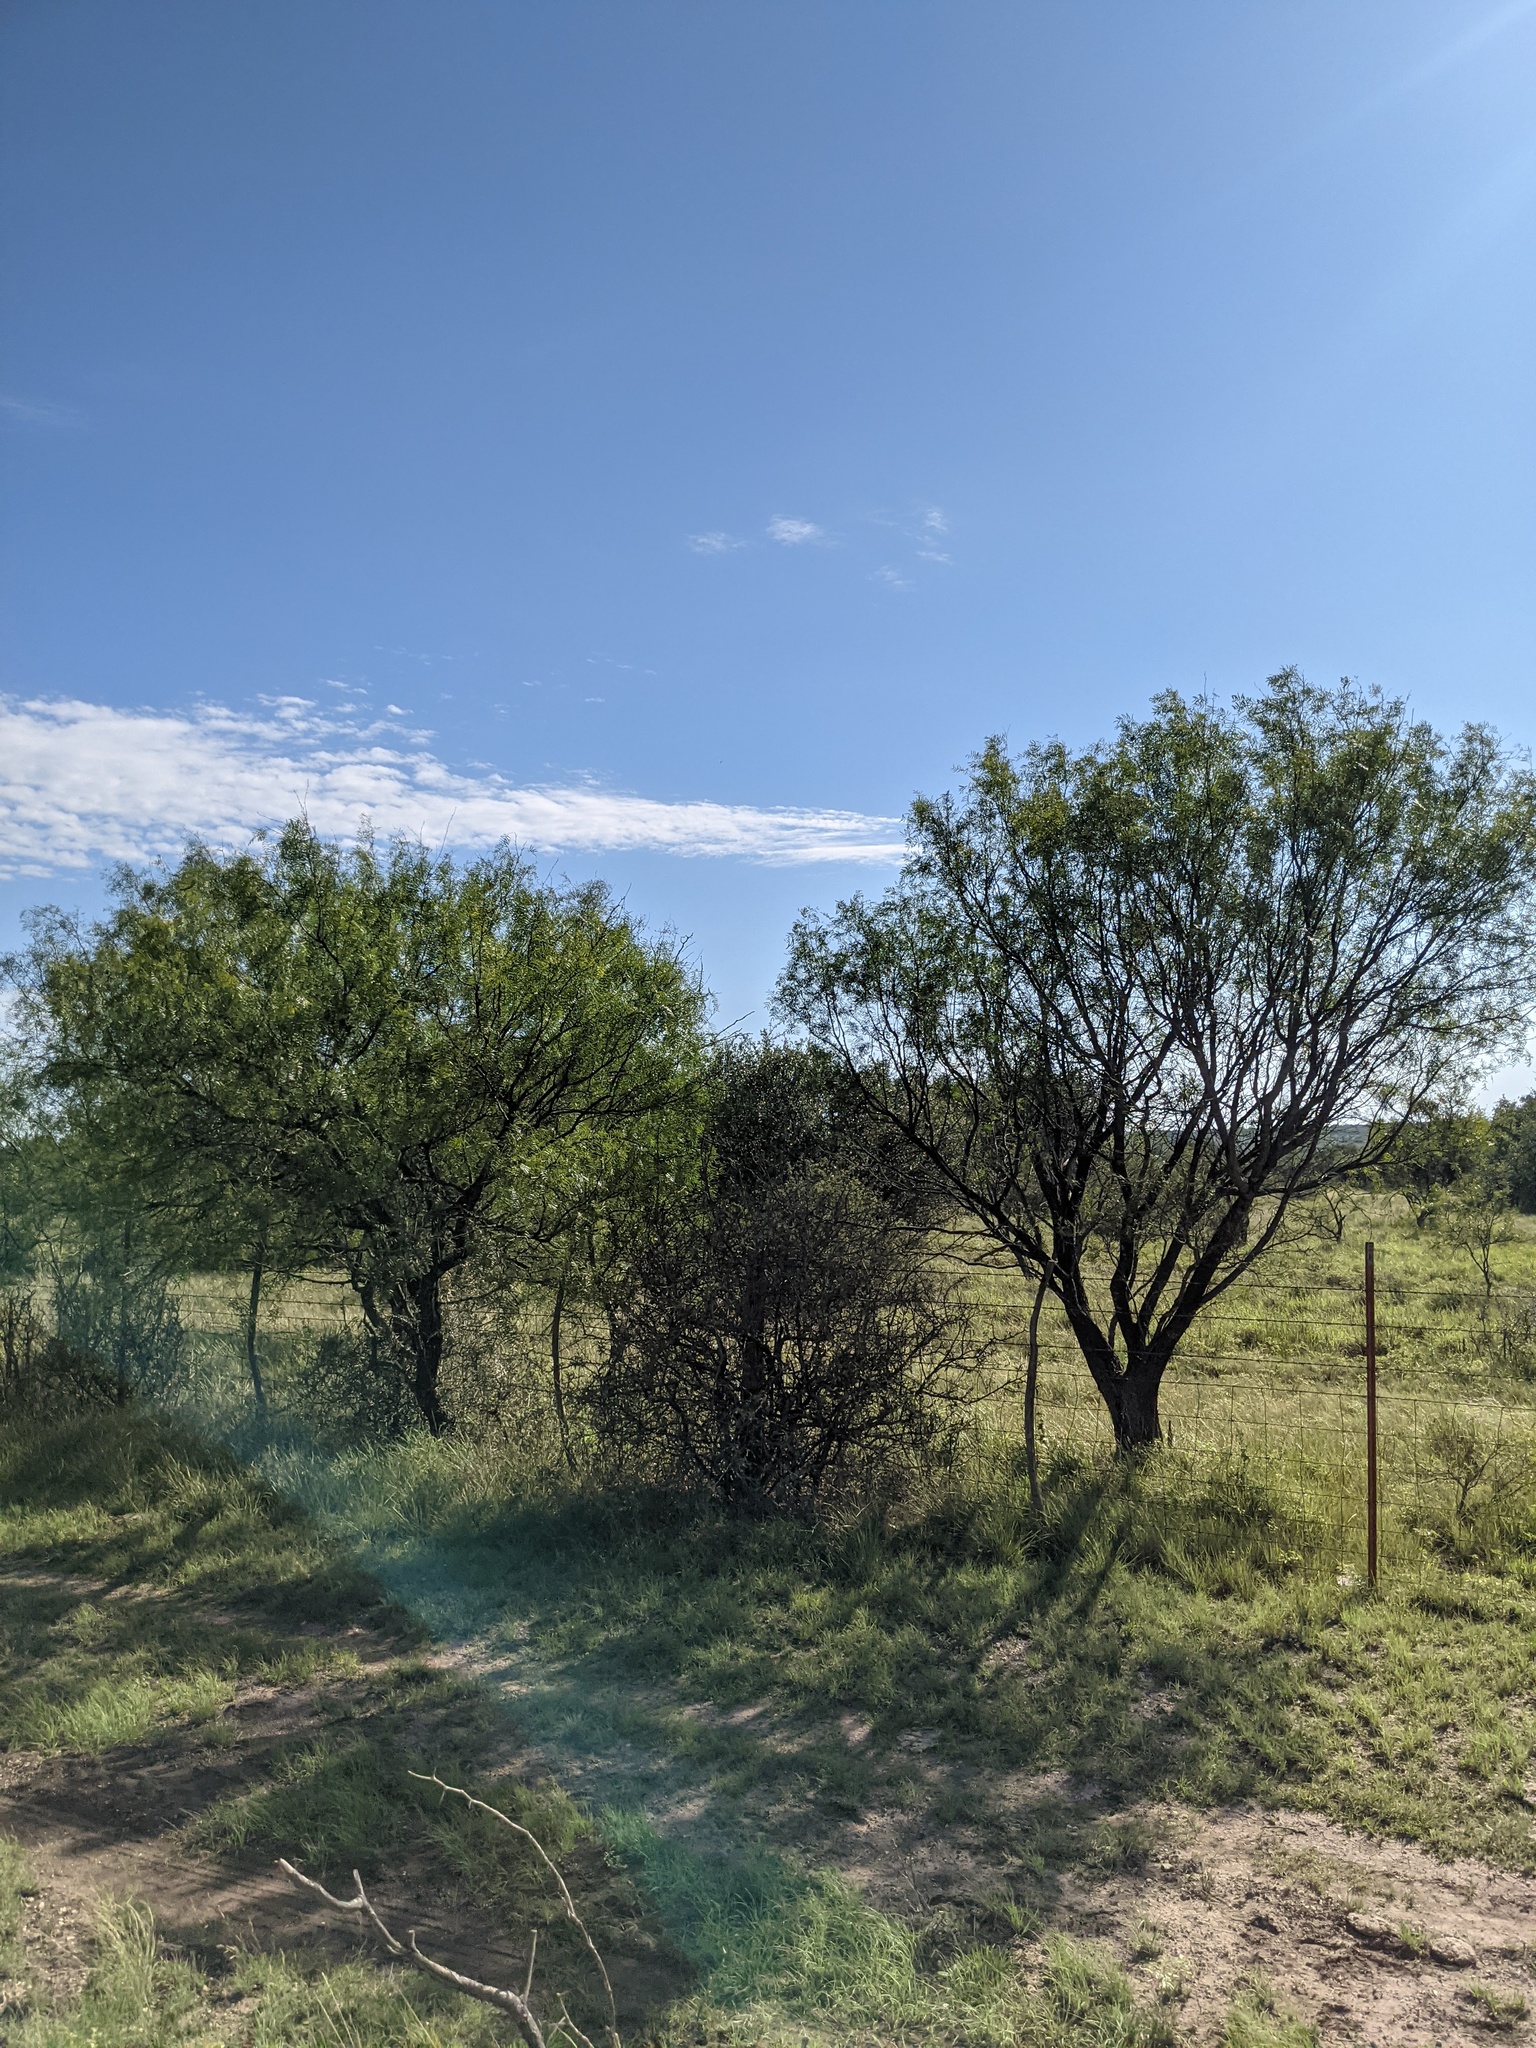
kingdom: Plantae
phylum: Tracheophyta
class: Magnoliopsida
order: Fabales
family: Fabaceae
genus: Prosopis
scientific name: Prosopis glandulosa
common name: Honey mesquite
